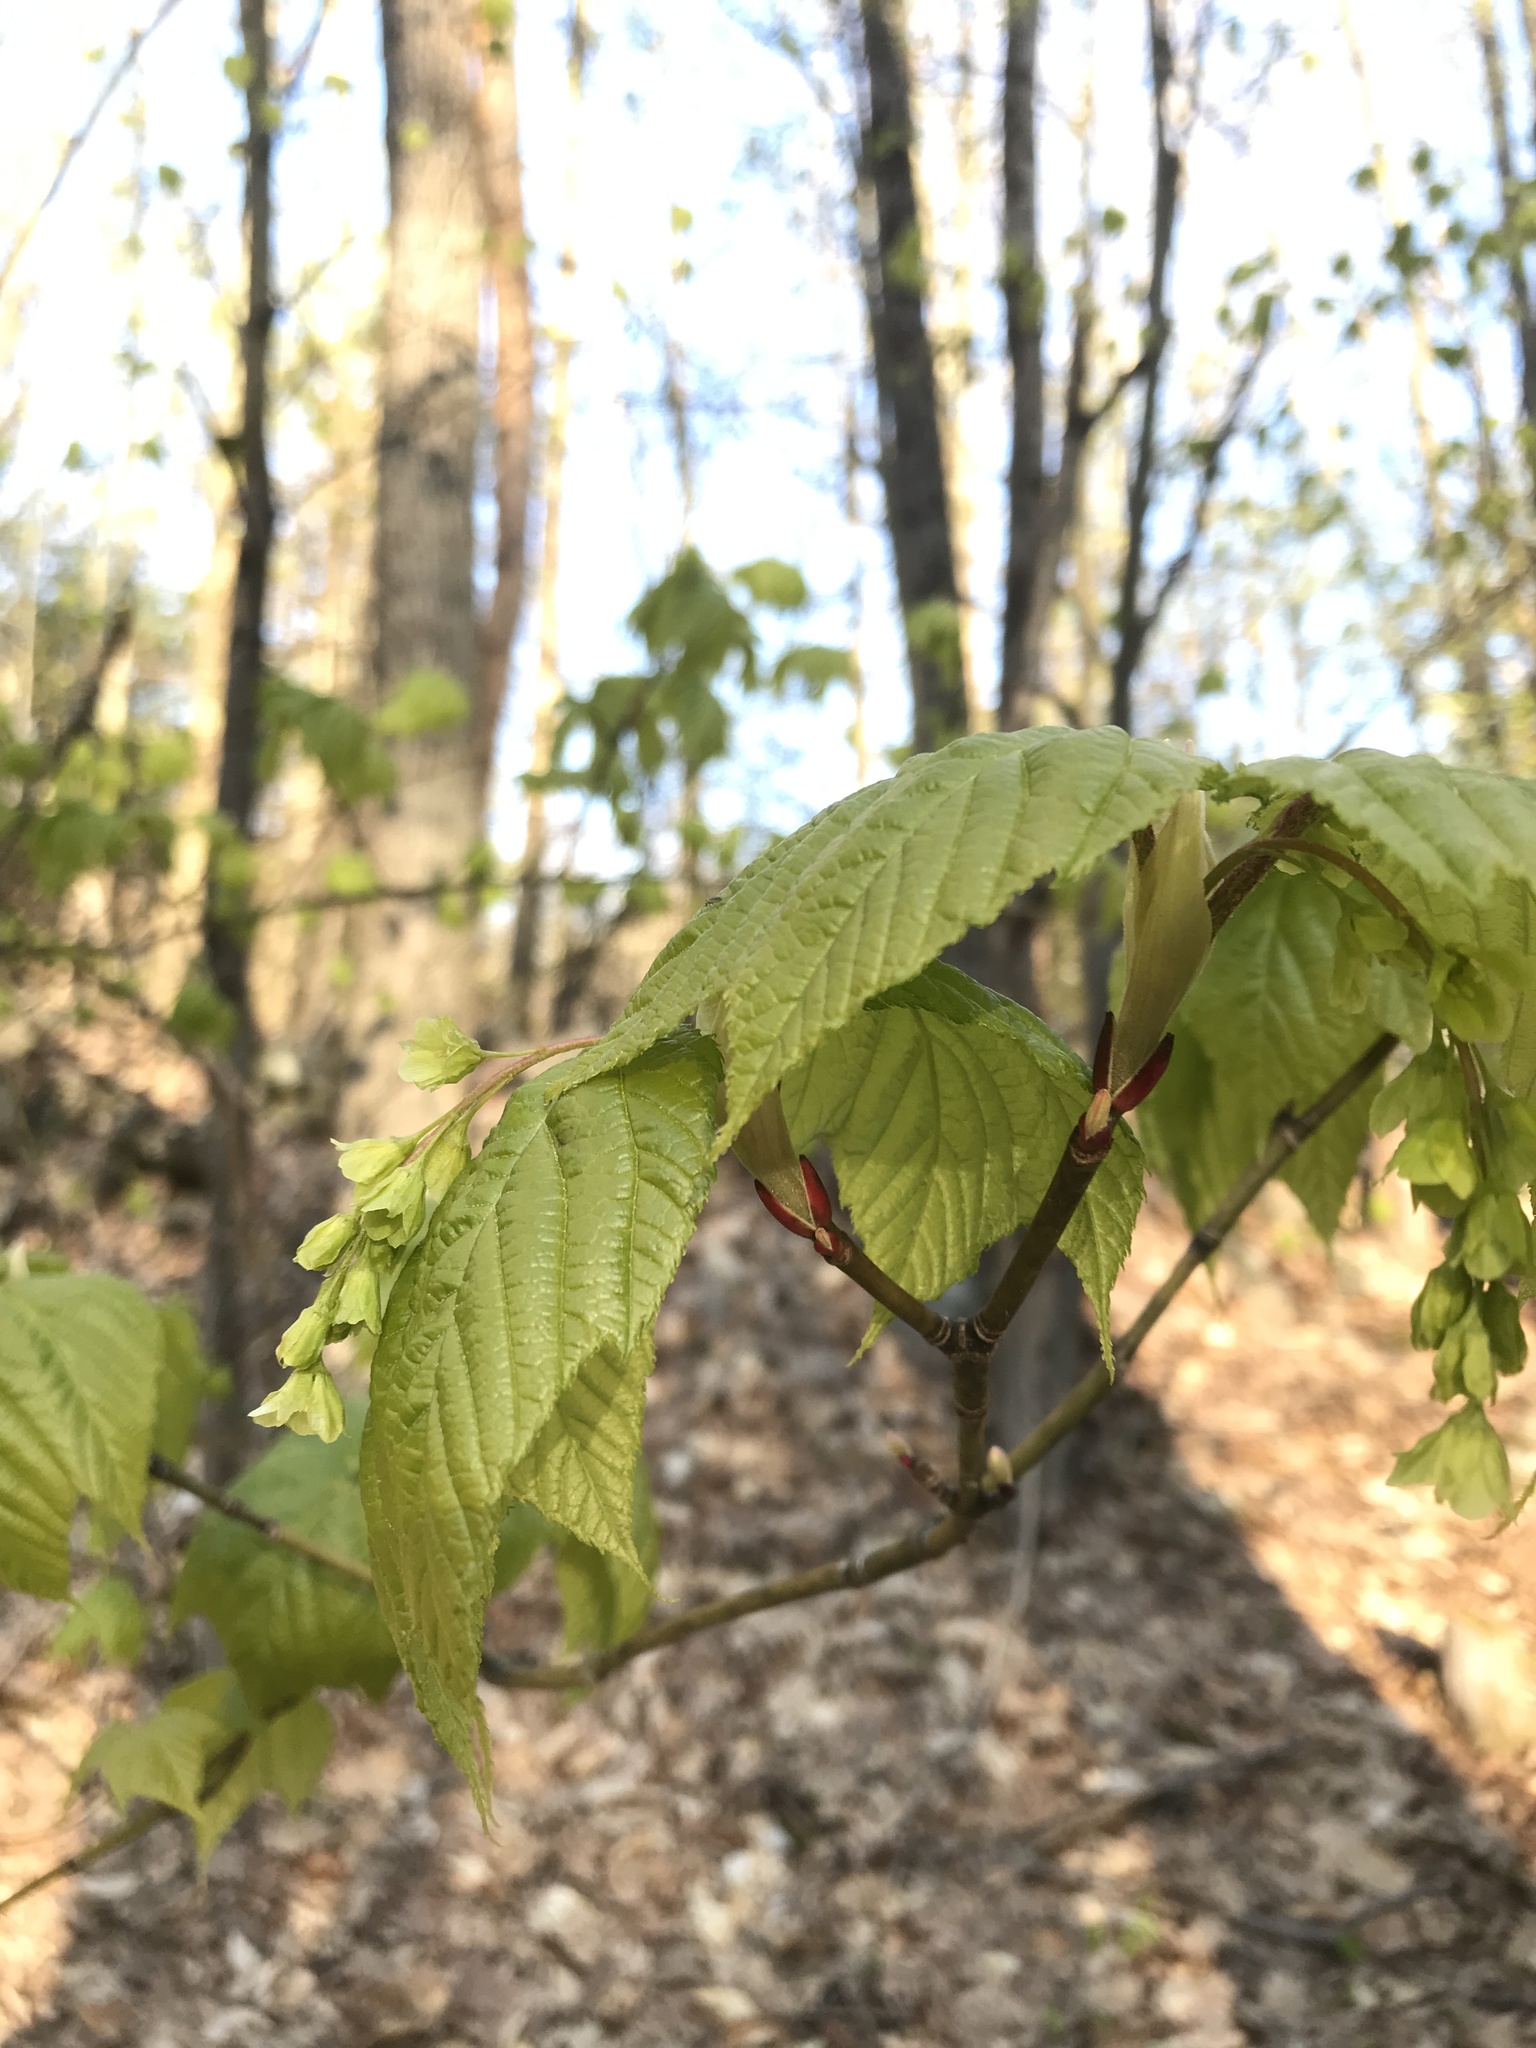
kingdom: Plantae
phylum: Tracheophyta
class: Magnoliopsida
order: Sapindales
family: Sapindaceae
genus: Acer
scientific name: Acer pensylvanicum
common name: Moosewood
